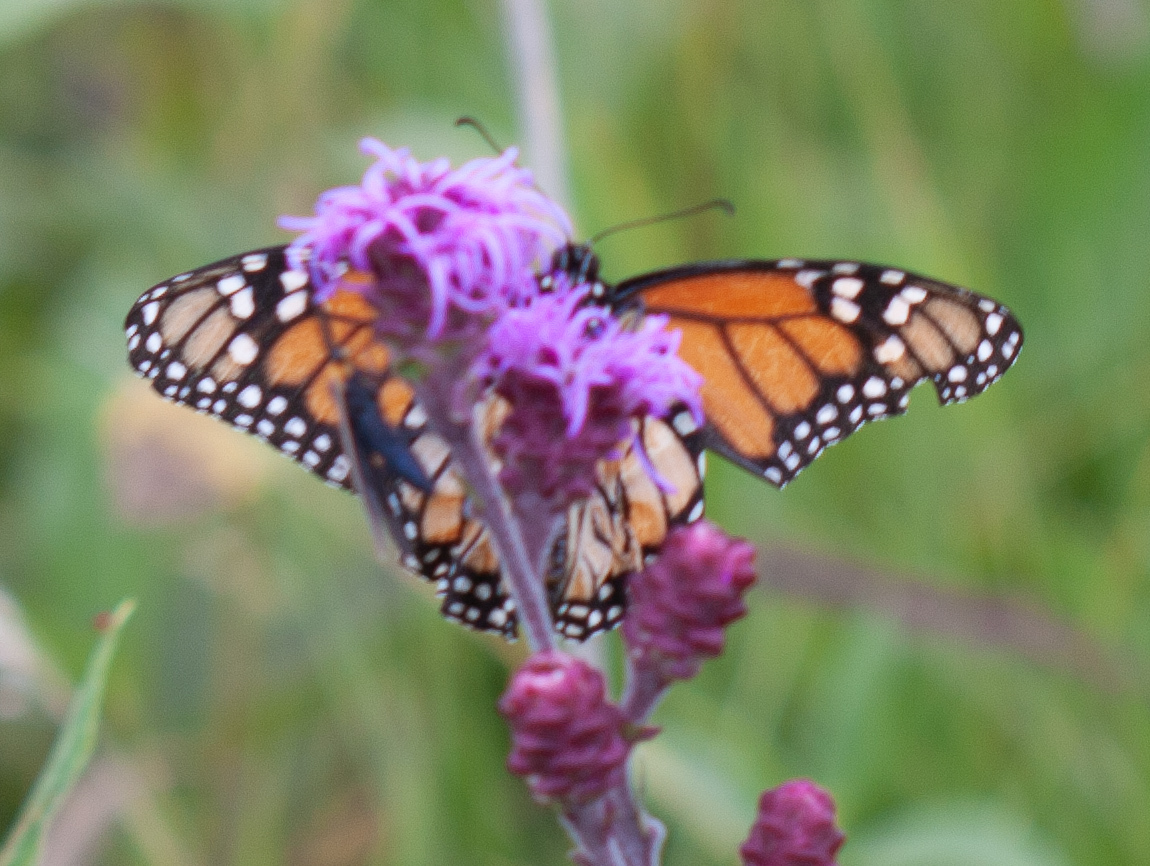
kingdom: Animalia
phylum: Arthropoda
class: Insecta
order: Lepidoptera
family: Nymphalidae
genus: Danaus
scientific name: Danaus plexippus
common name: Monarch
